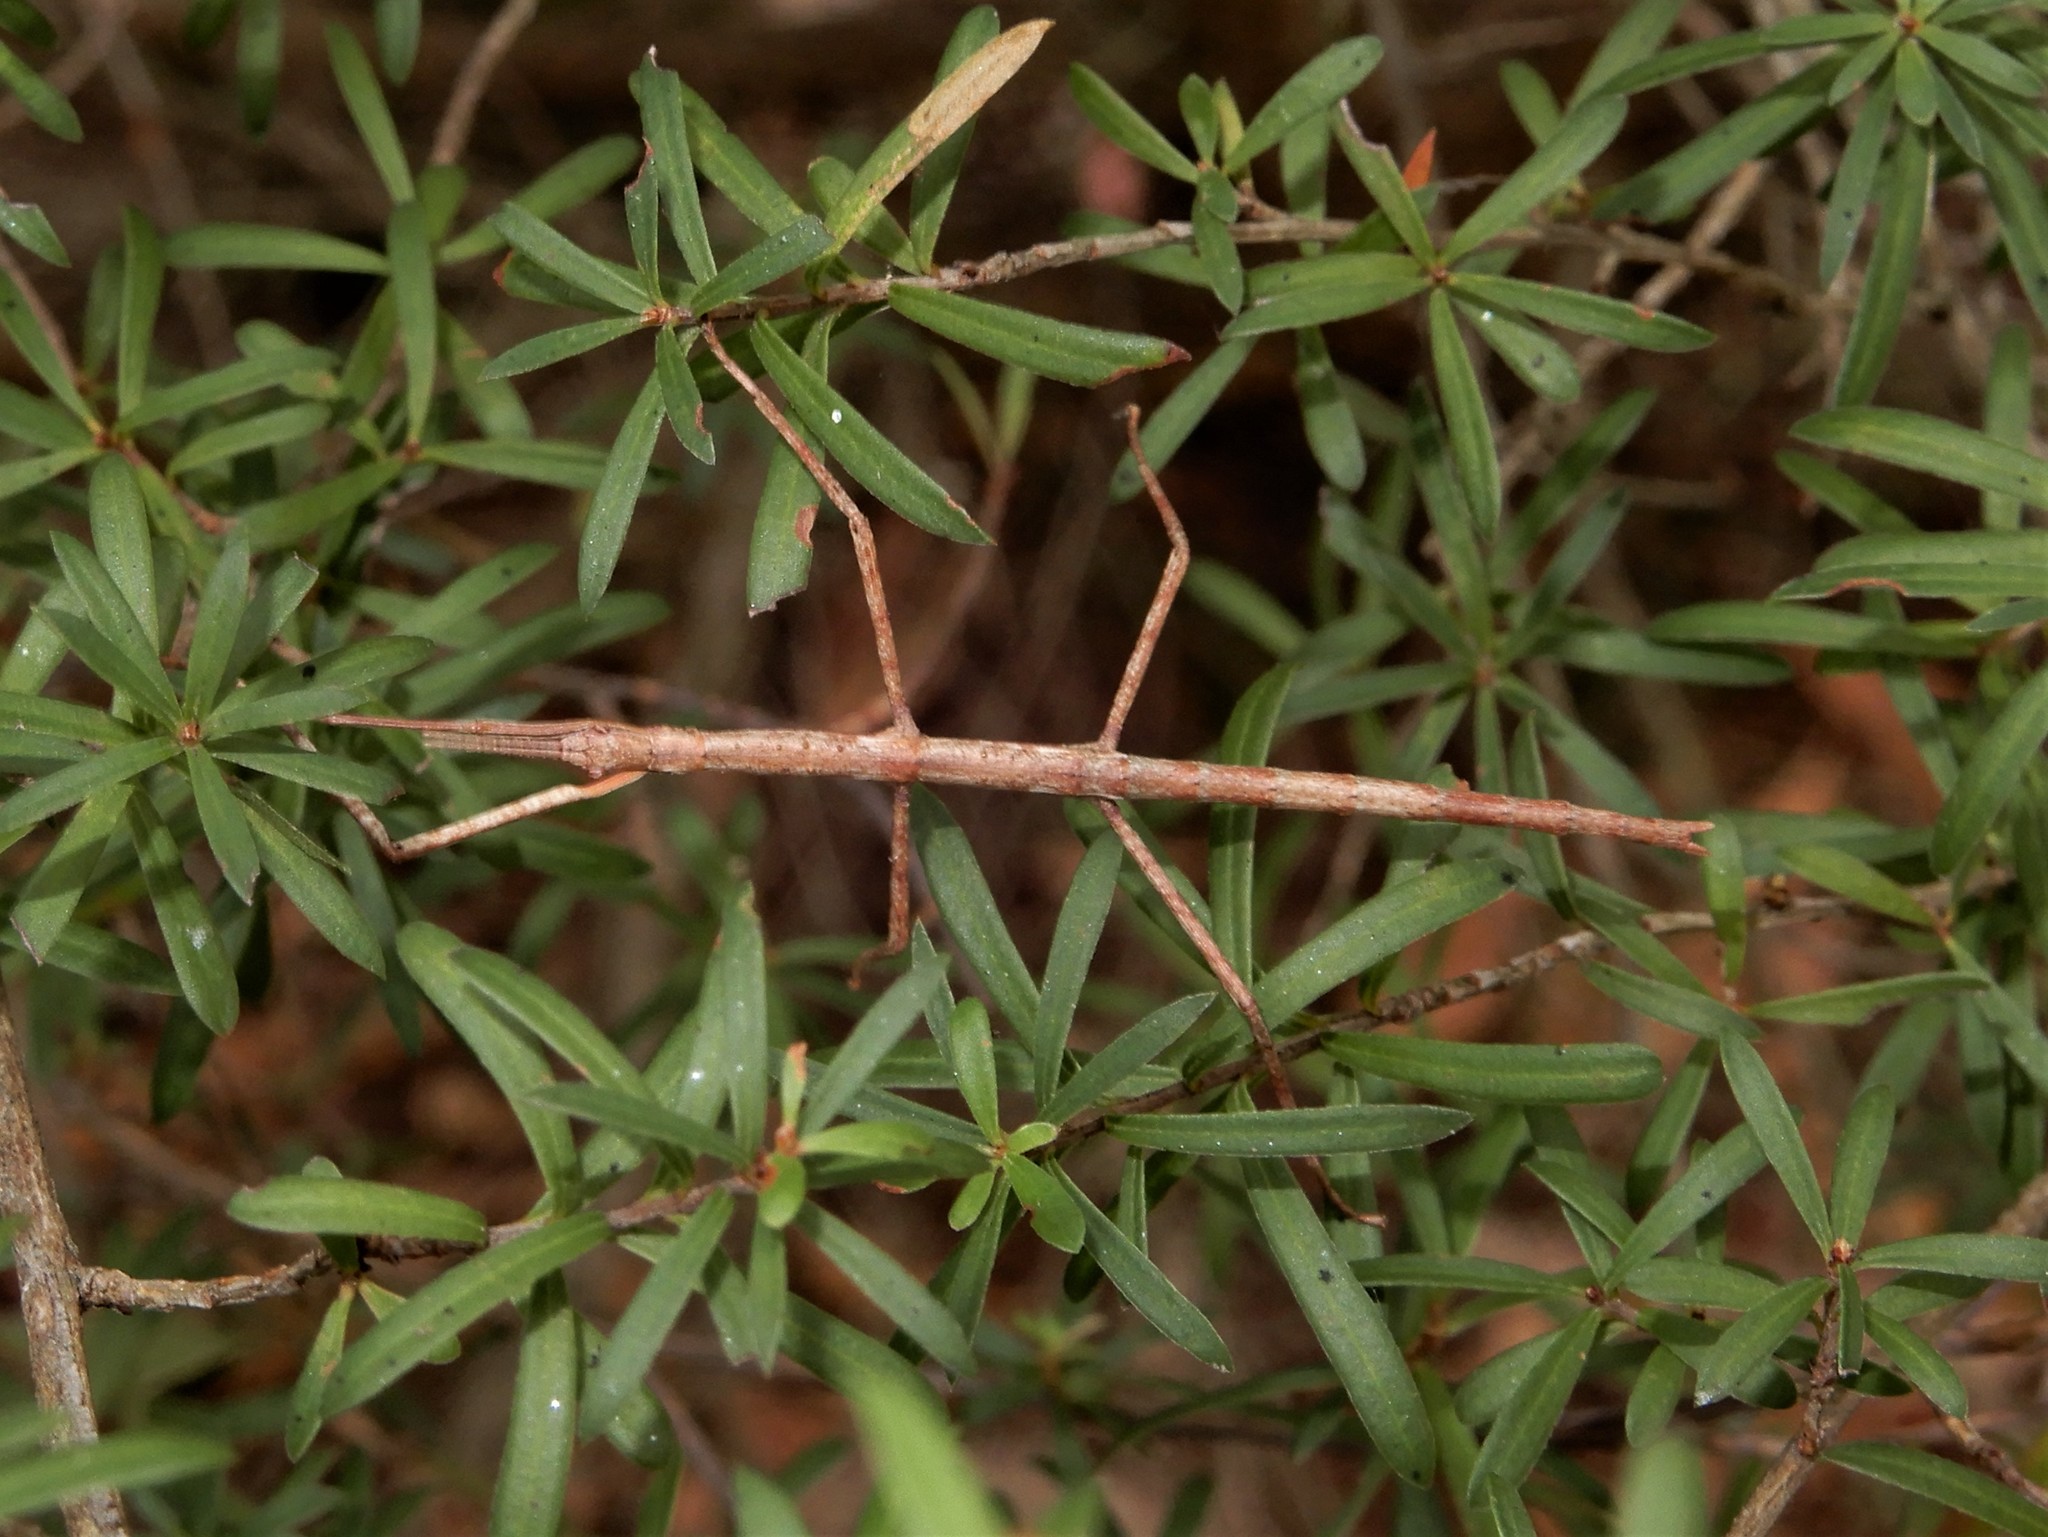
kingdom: Animalia
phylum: Arthropoda
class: Insecta
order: Phasmida
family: Phasmatidae
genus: Clitarchus
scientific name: Clitarchus hookeri
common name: Smooth stick insect
